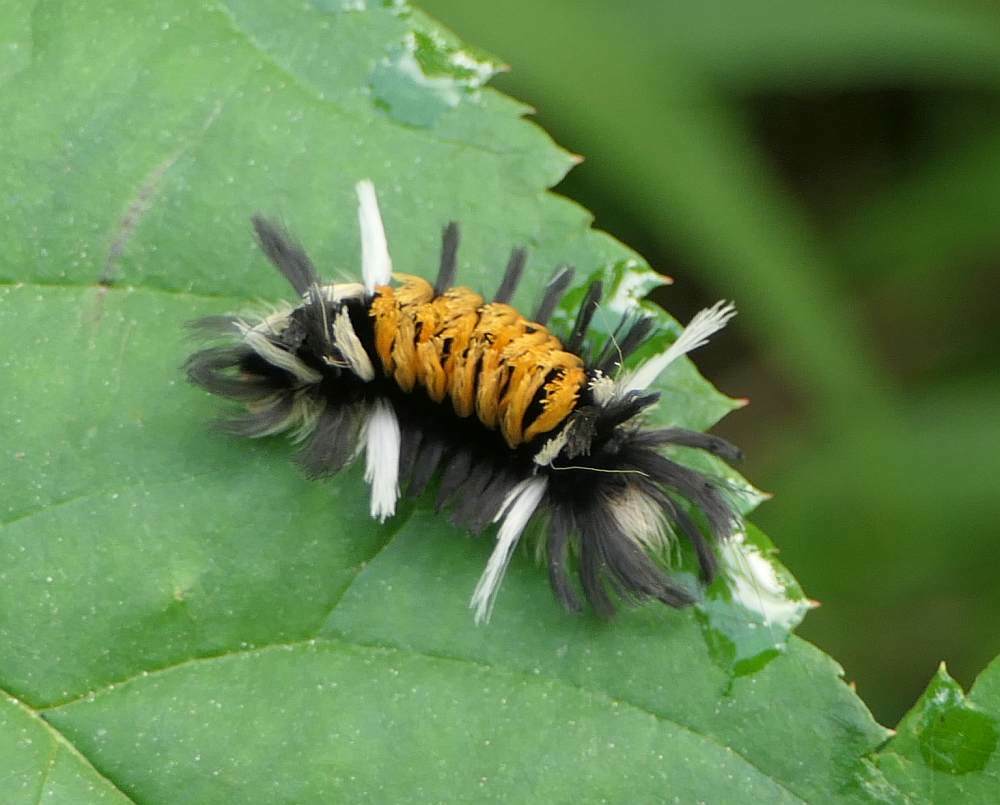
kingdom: Animalia
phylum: Arthropoda
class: Insecta
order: Lepidoptera
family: Erebidae
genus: Euchaetes
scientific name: Euchaetes egle
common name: Milkweed tussock moth
